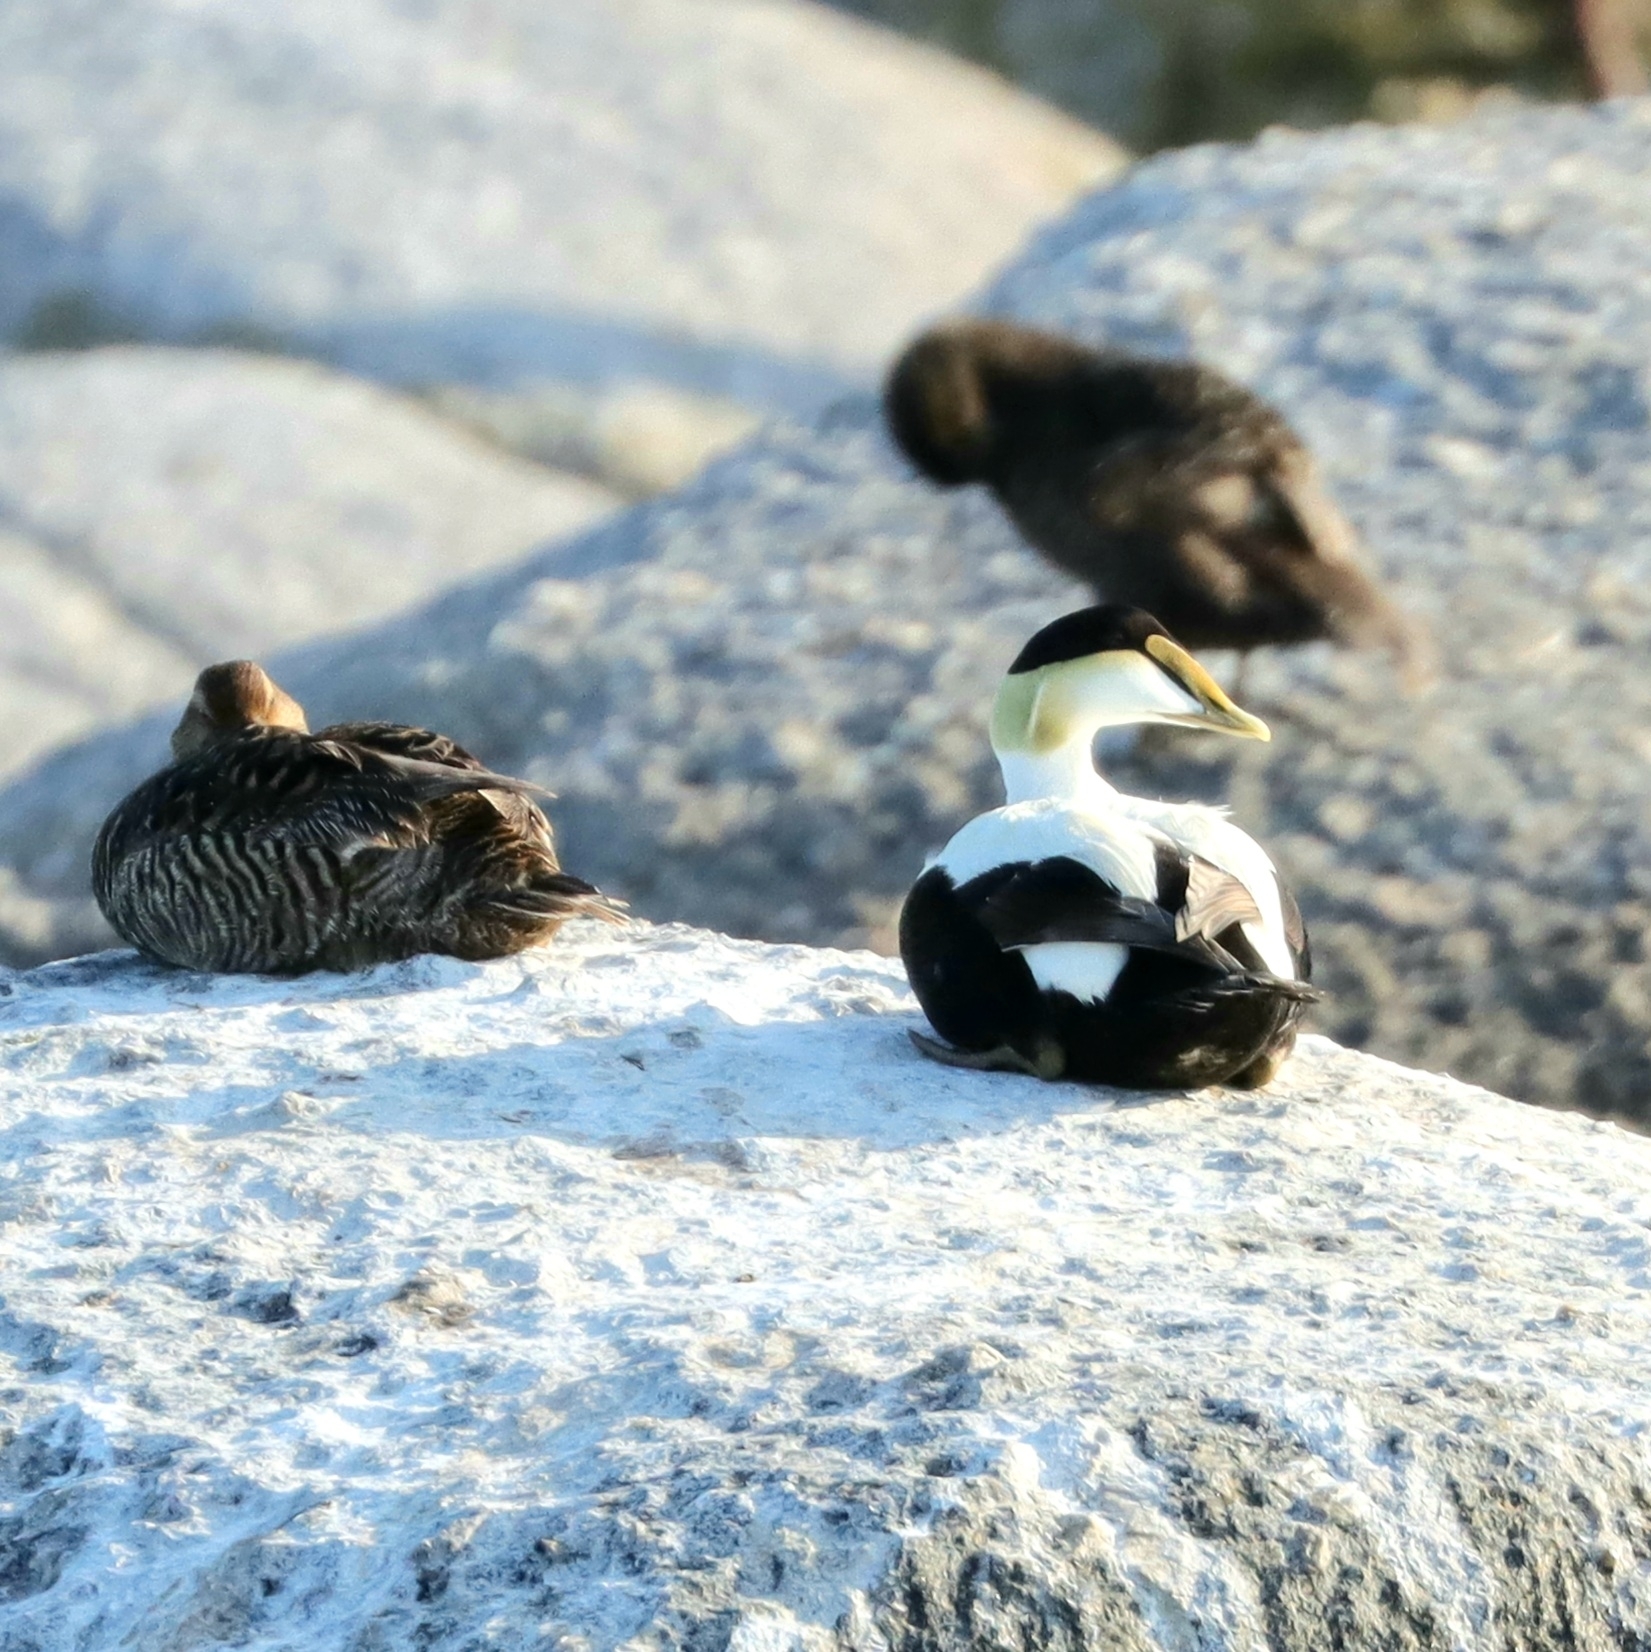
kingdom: Animalia
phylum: Chordata
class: Aves
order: Anseriformes
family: Anatidae
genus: Somateria
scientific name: Somateria mollissima
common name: Common eider
